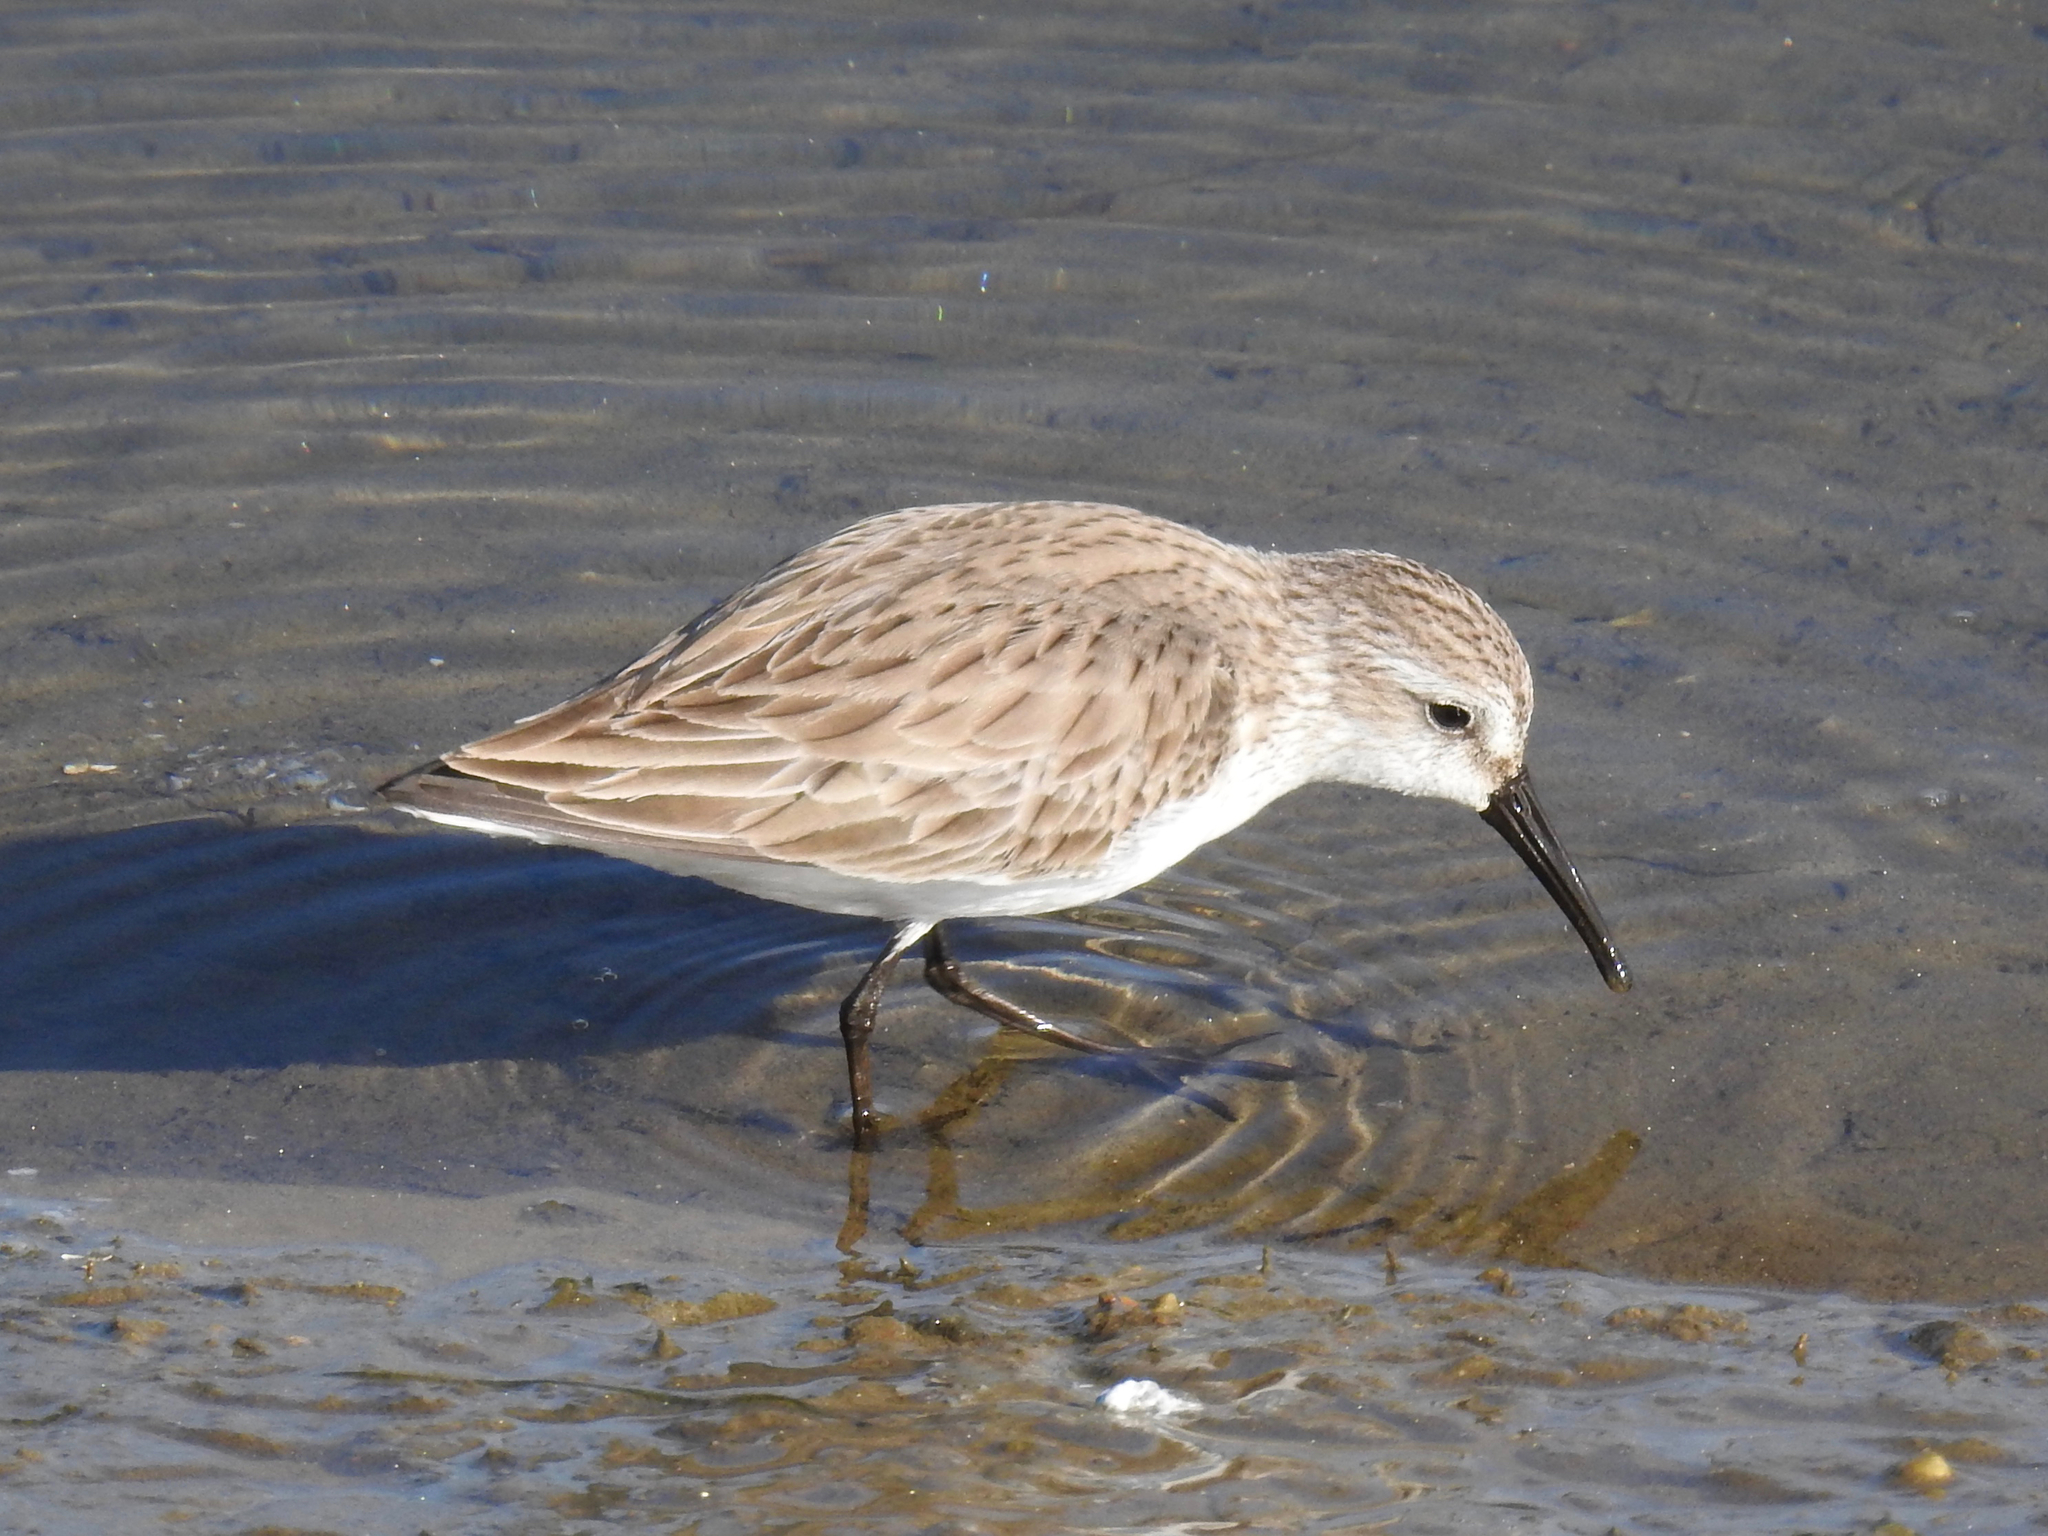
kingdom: Animalia
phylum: Chordata
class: Aves
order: Charadriiformes
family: Scolopacidae
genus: Calidris
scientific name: Calidris mauri
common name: Western sandpiper
